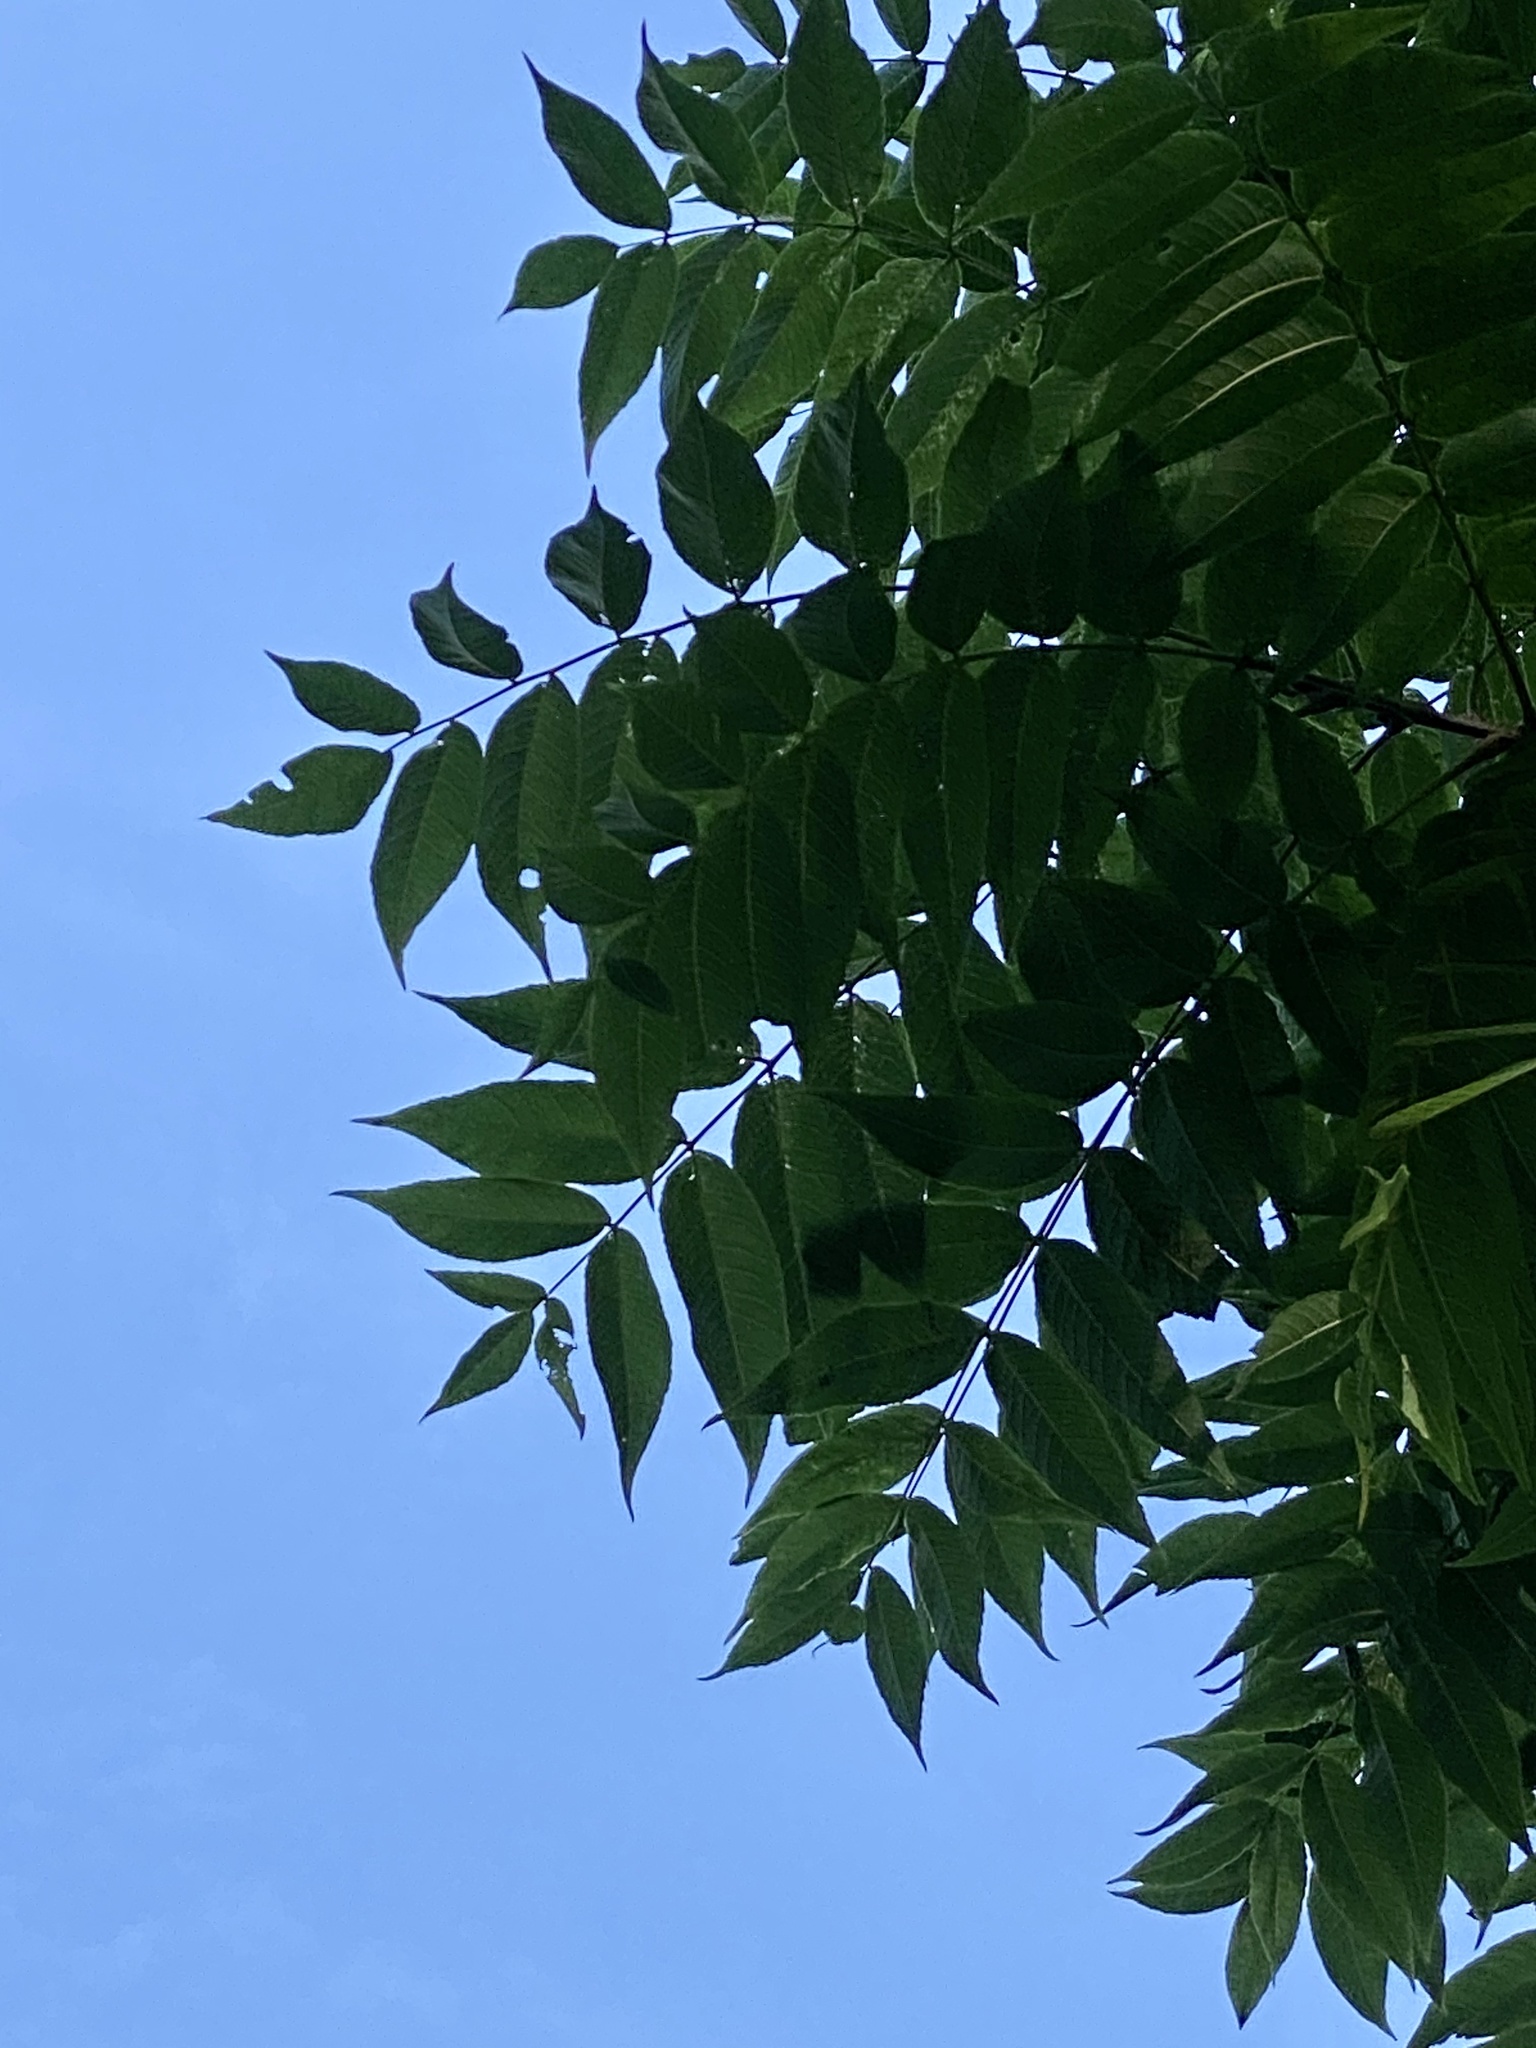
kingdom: Plantae
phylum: Tracheophyta
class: Magnoliopsida
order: Fagales
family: Juglandaceae
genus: Juglans
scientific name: Juglans nigra
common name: Black walnut
